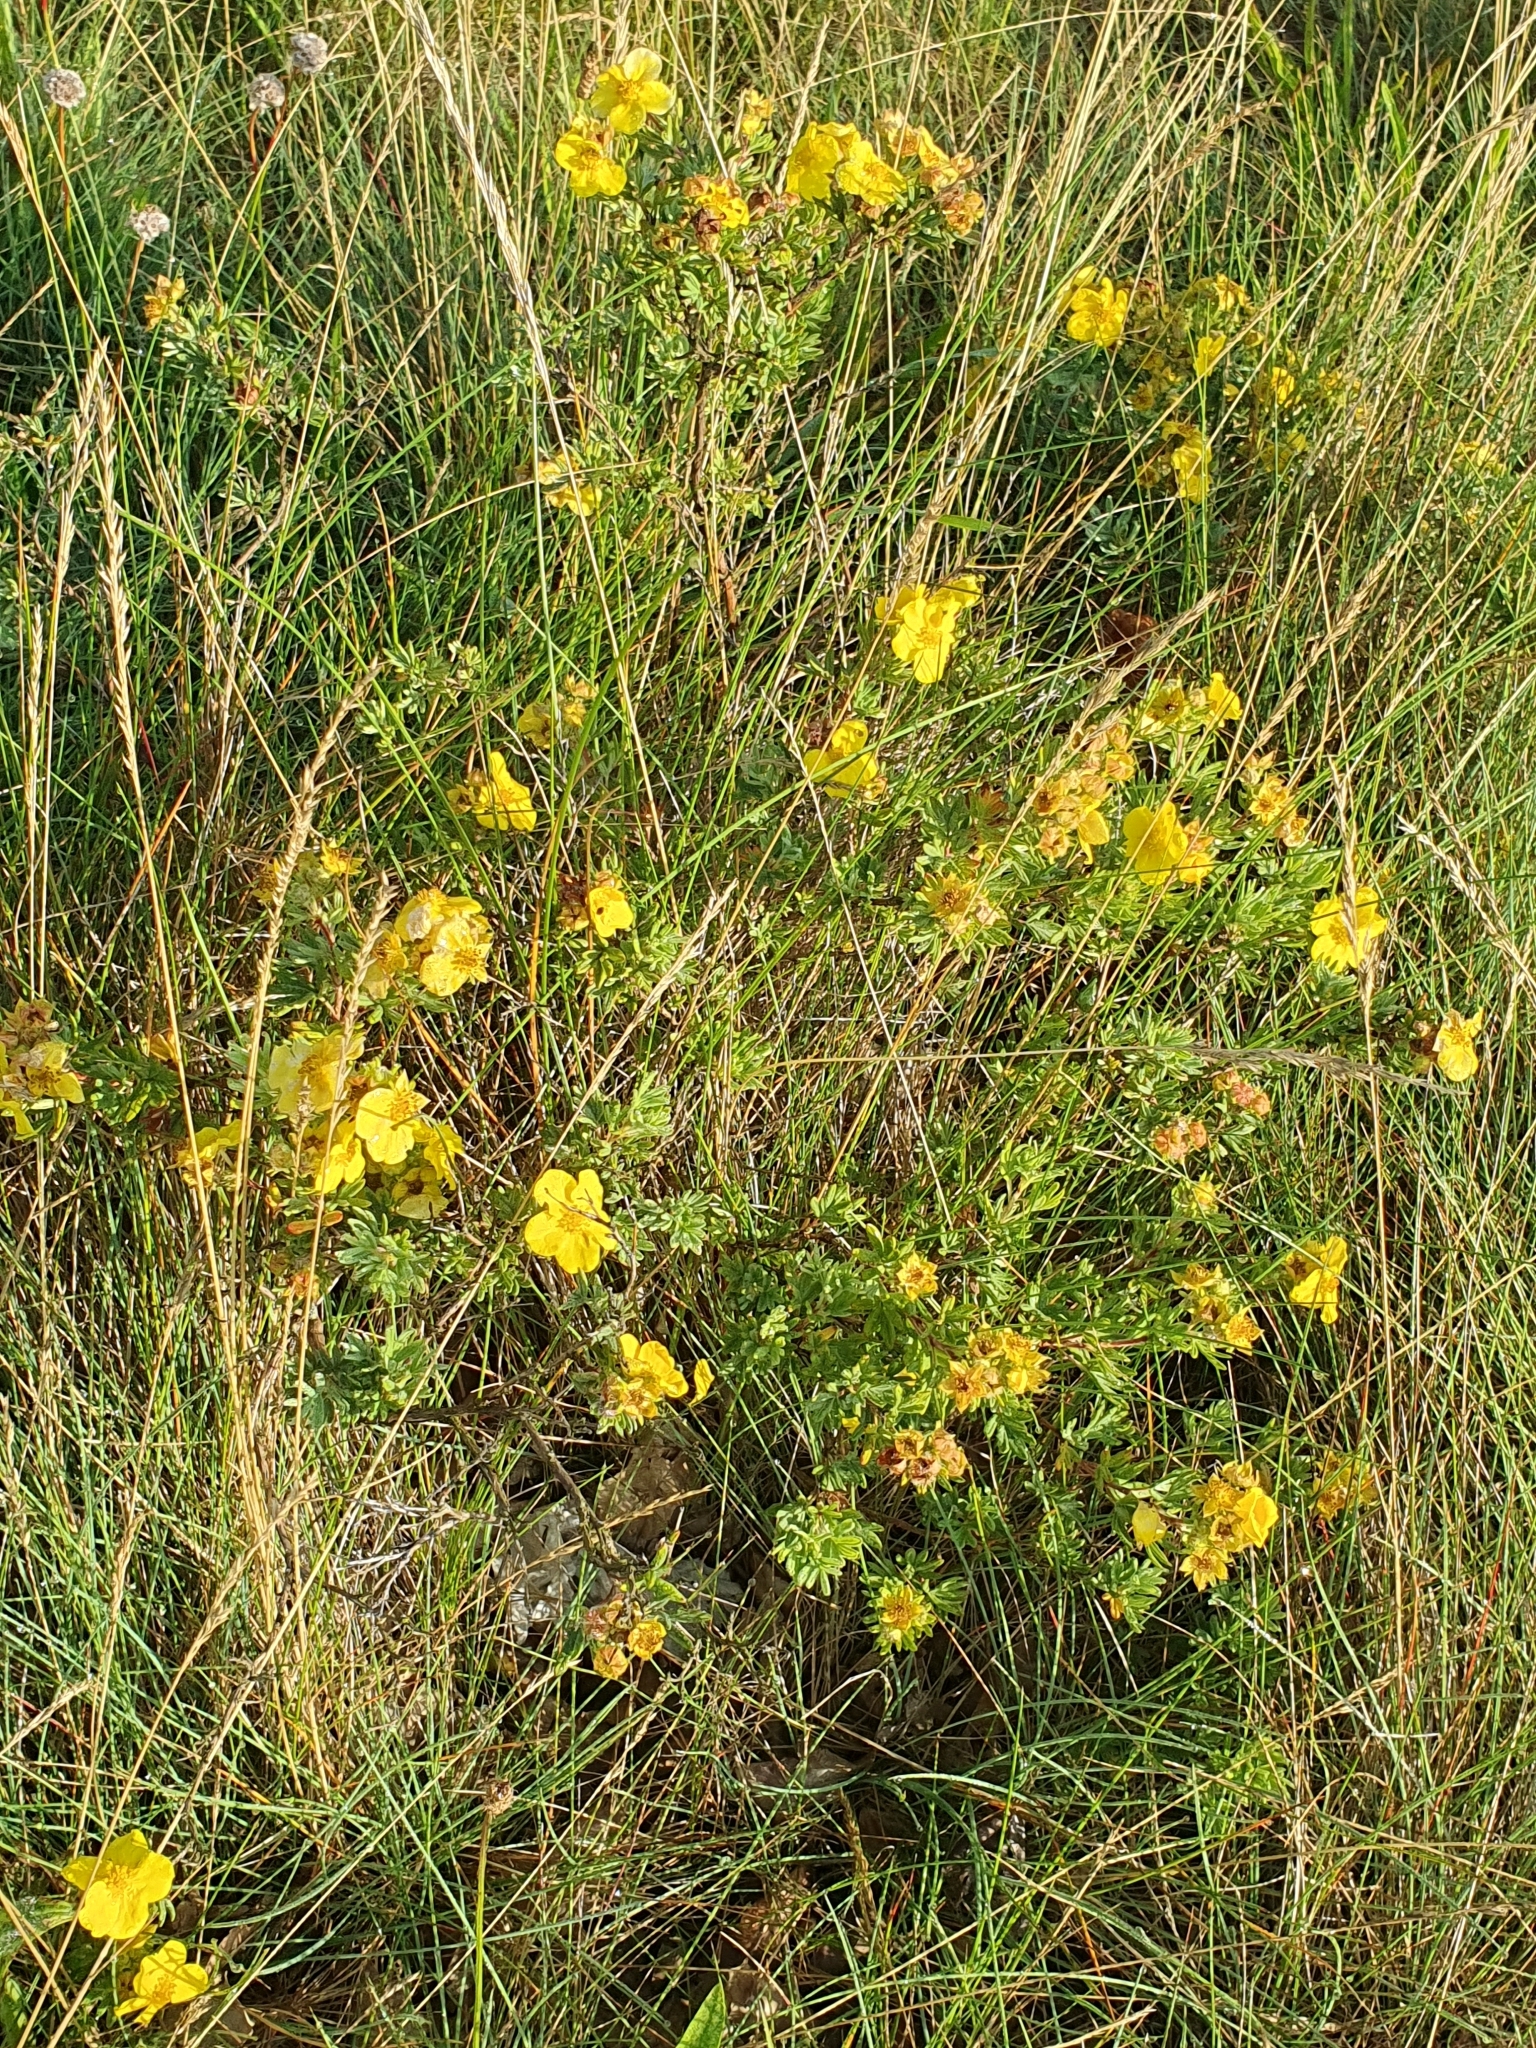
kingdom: Plantae
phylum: Tracheophyta
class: Magnoliopsida
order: Rosales
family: Rosaceae
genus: Dasiphora
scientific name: Dasiphora fruticosa
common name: Shrubby cinquefoil
